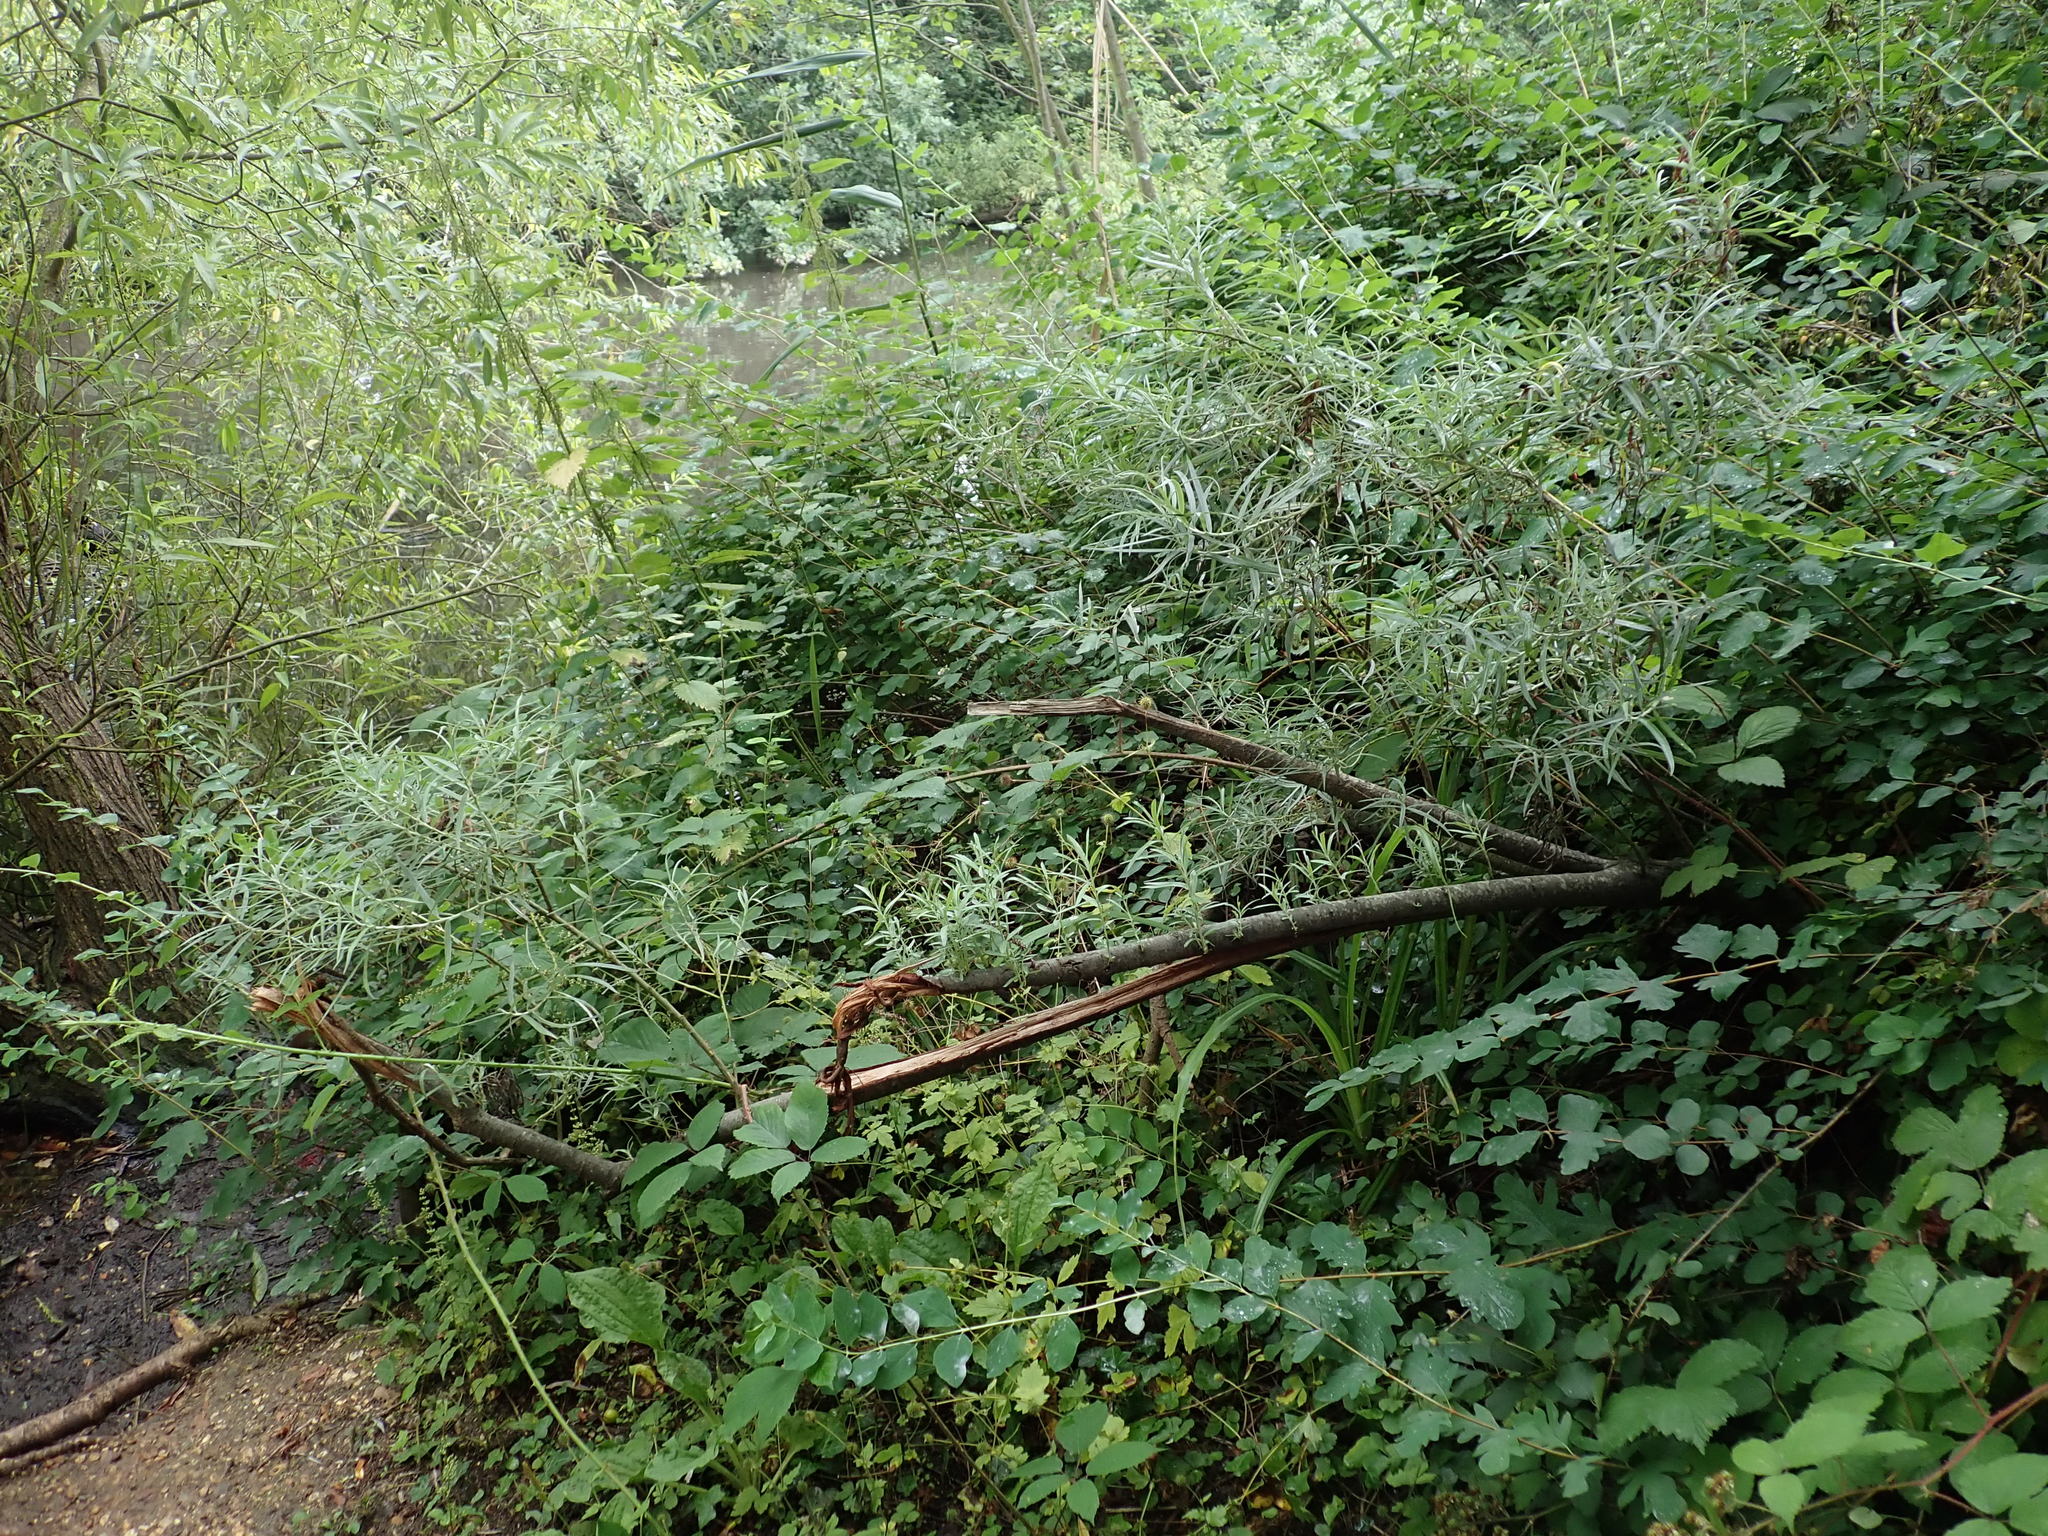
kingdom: Plantae
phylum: Tracheophyta
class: Magnoliopsida
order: Malpighiales
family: Salicaceae
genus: Salix
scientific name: Salix eleagnos
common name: Elaeagnus willow
